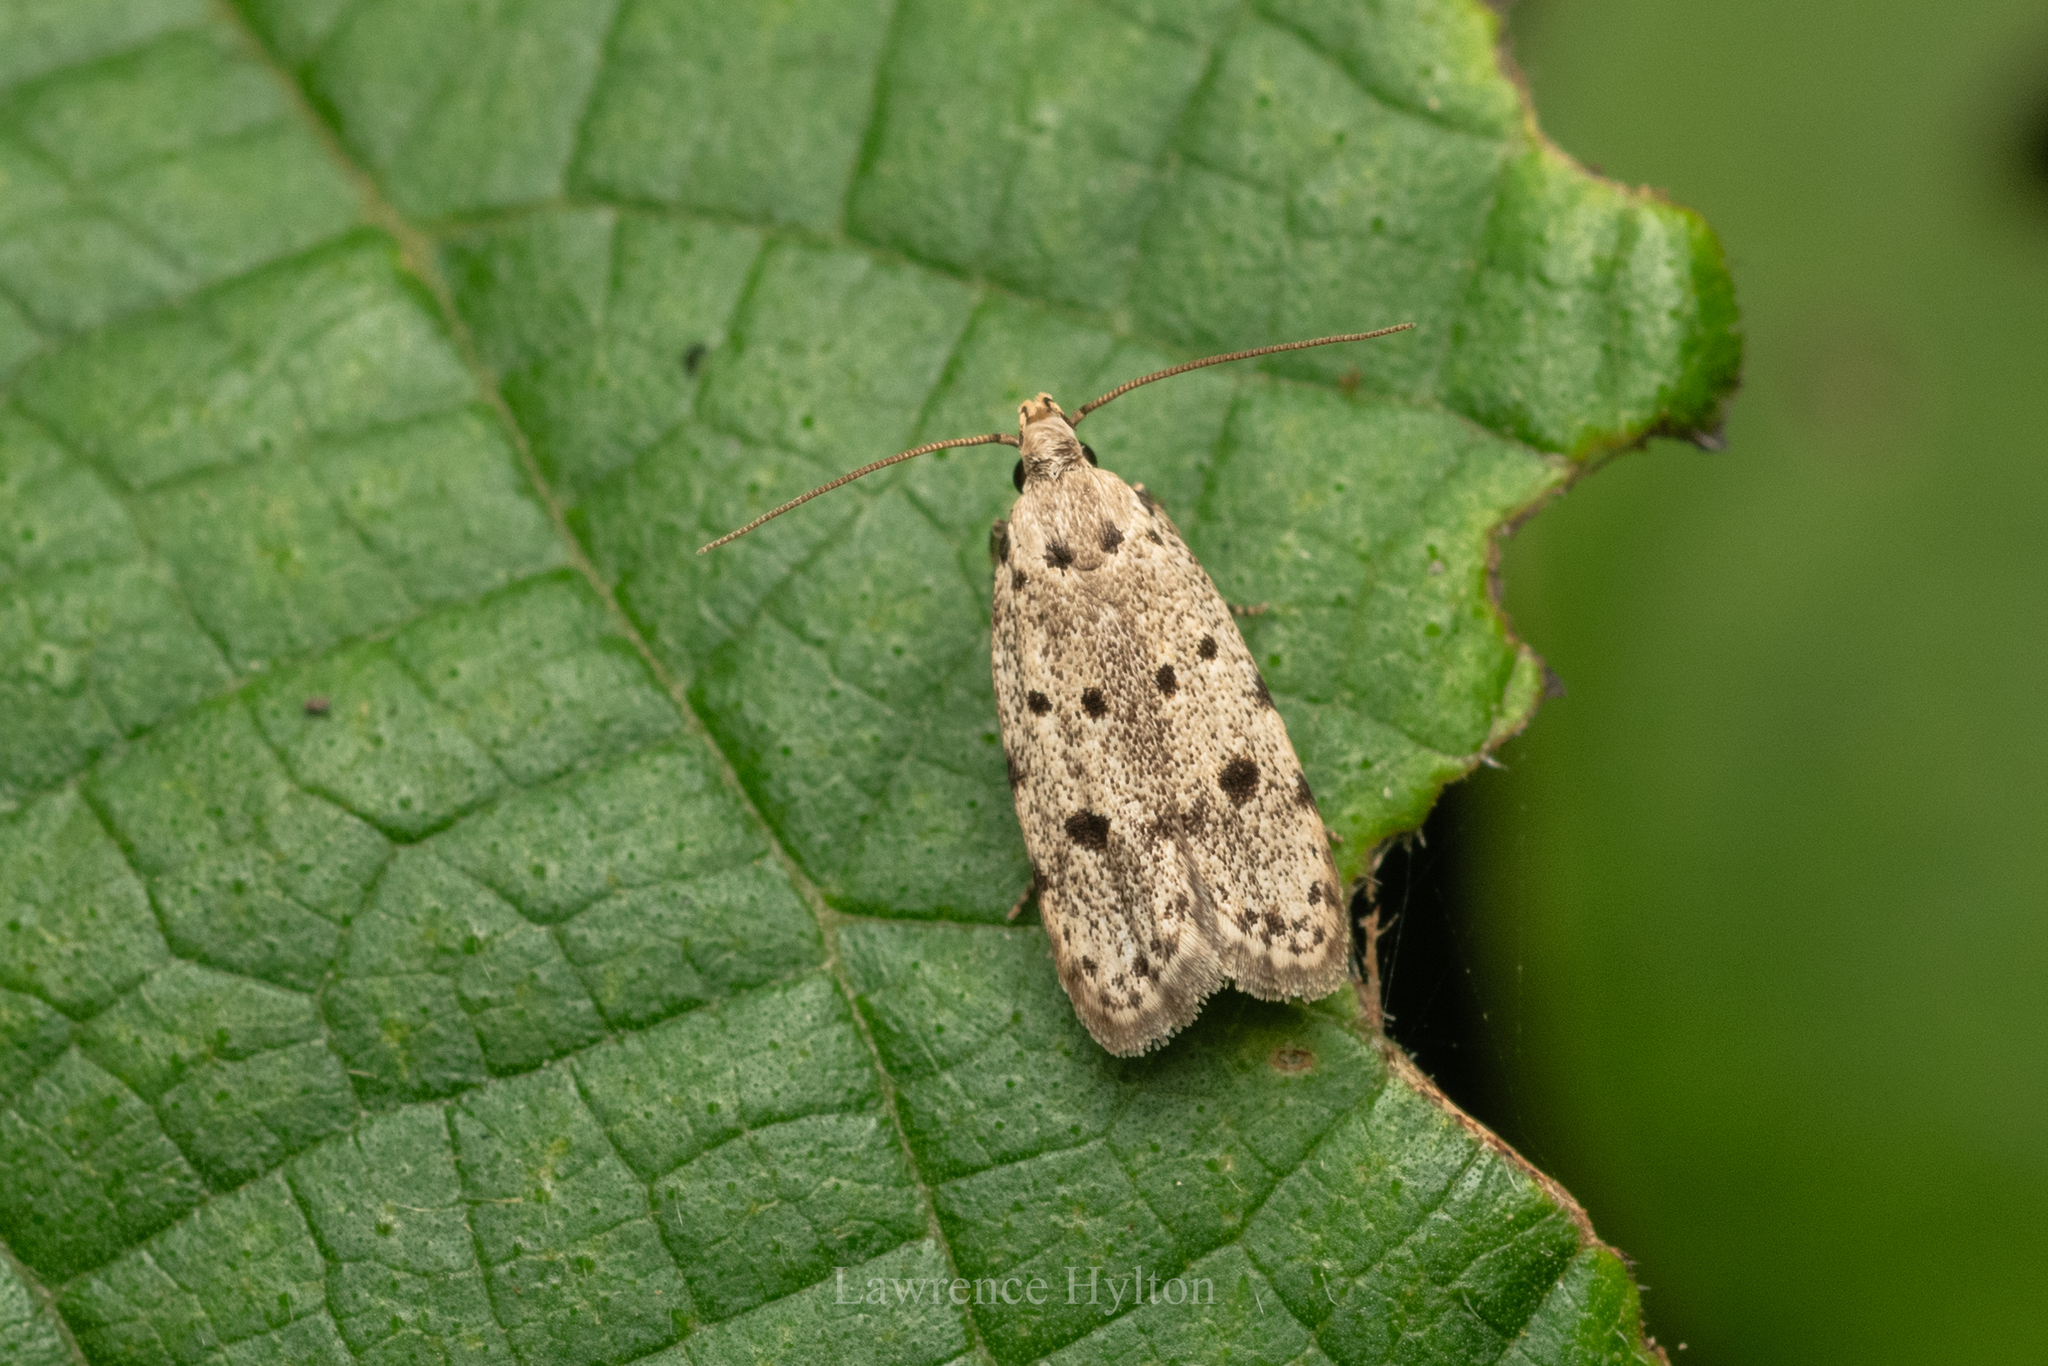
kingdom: Animalia
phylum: Arthropoda
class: Insecta
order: Lepidoptera
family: Autostichidae
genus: Autosticha
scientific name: Autosticha calceata
